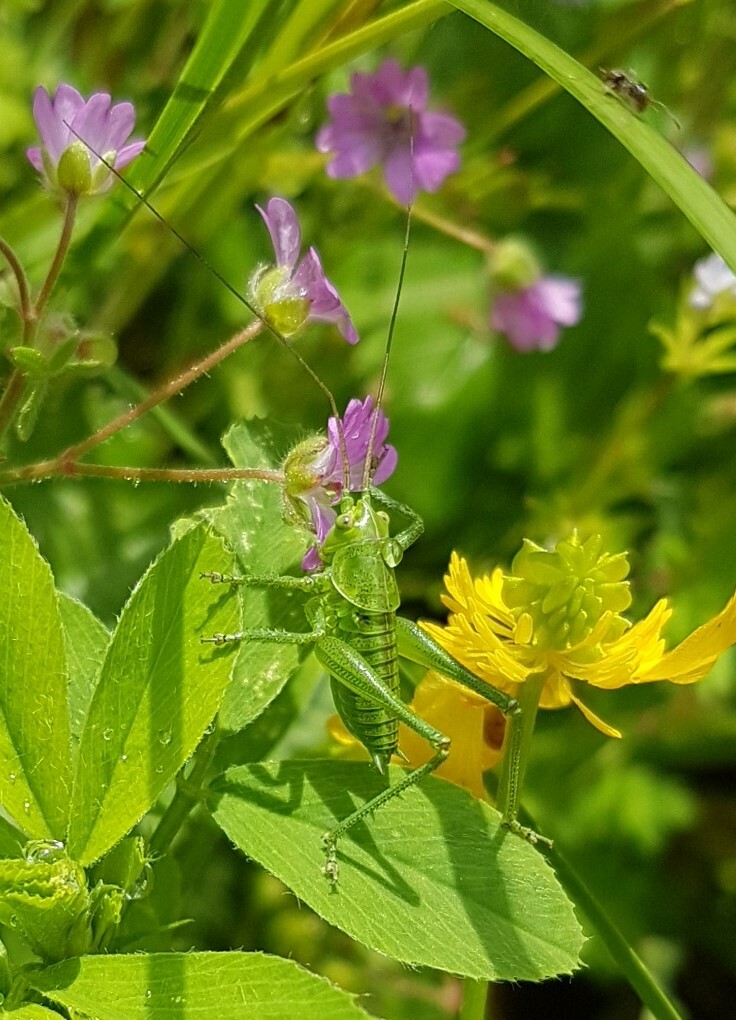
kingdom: Animalia
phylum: Arthropoda
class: Insecta
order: Orthoptera
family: Tettigoniidae
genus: Tettigonia
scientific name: Tettigonia viridissima
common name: Great green bush-cricket
